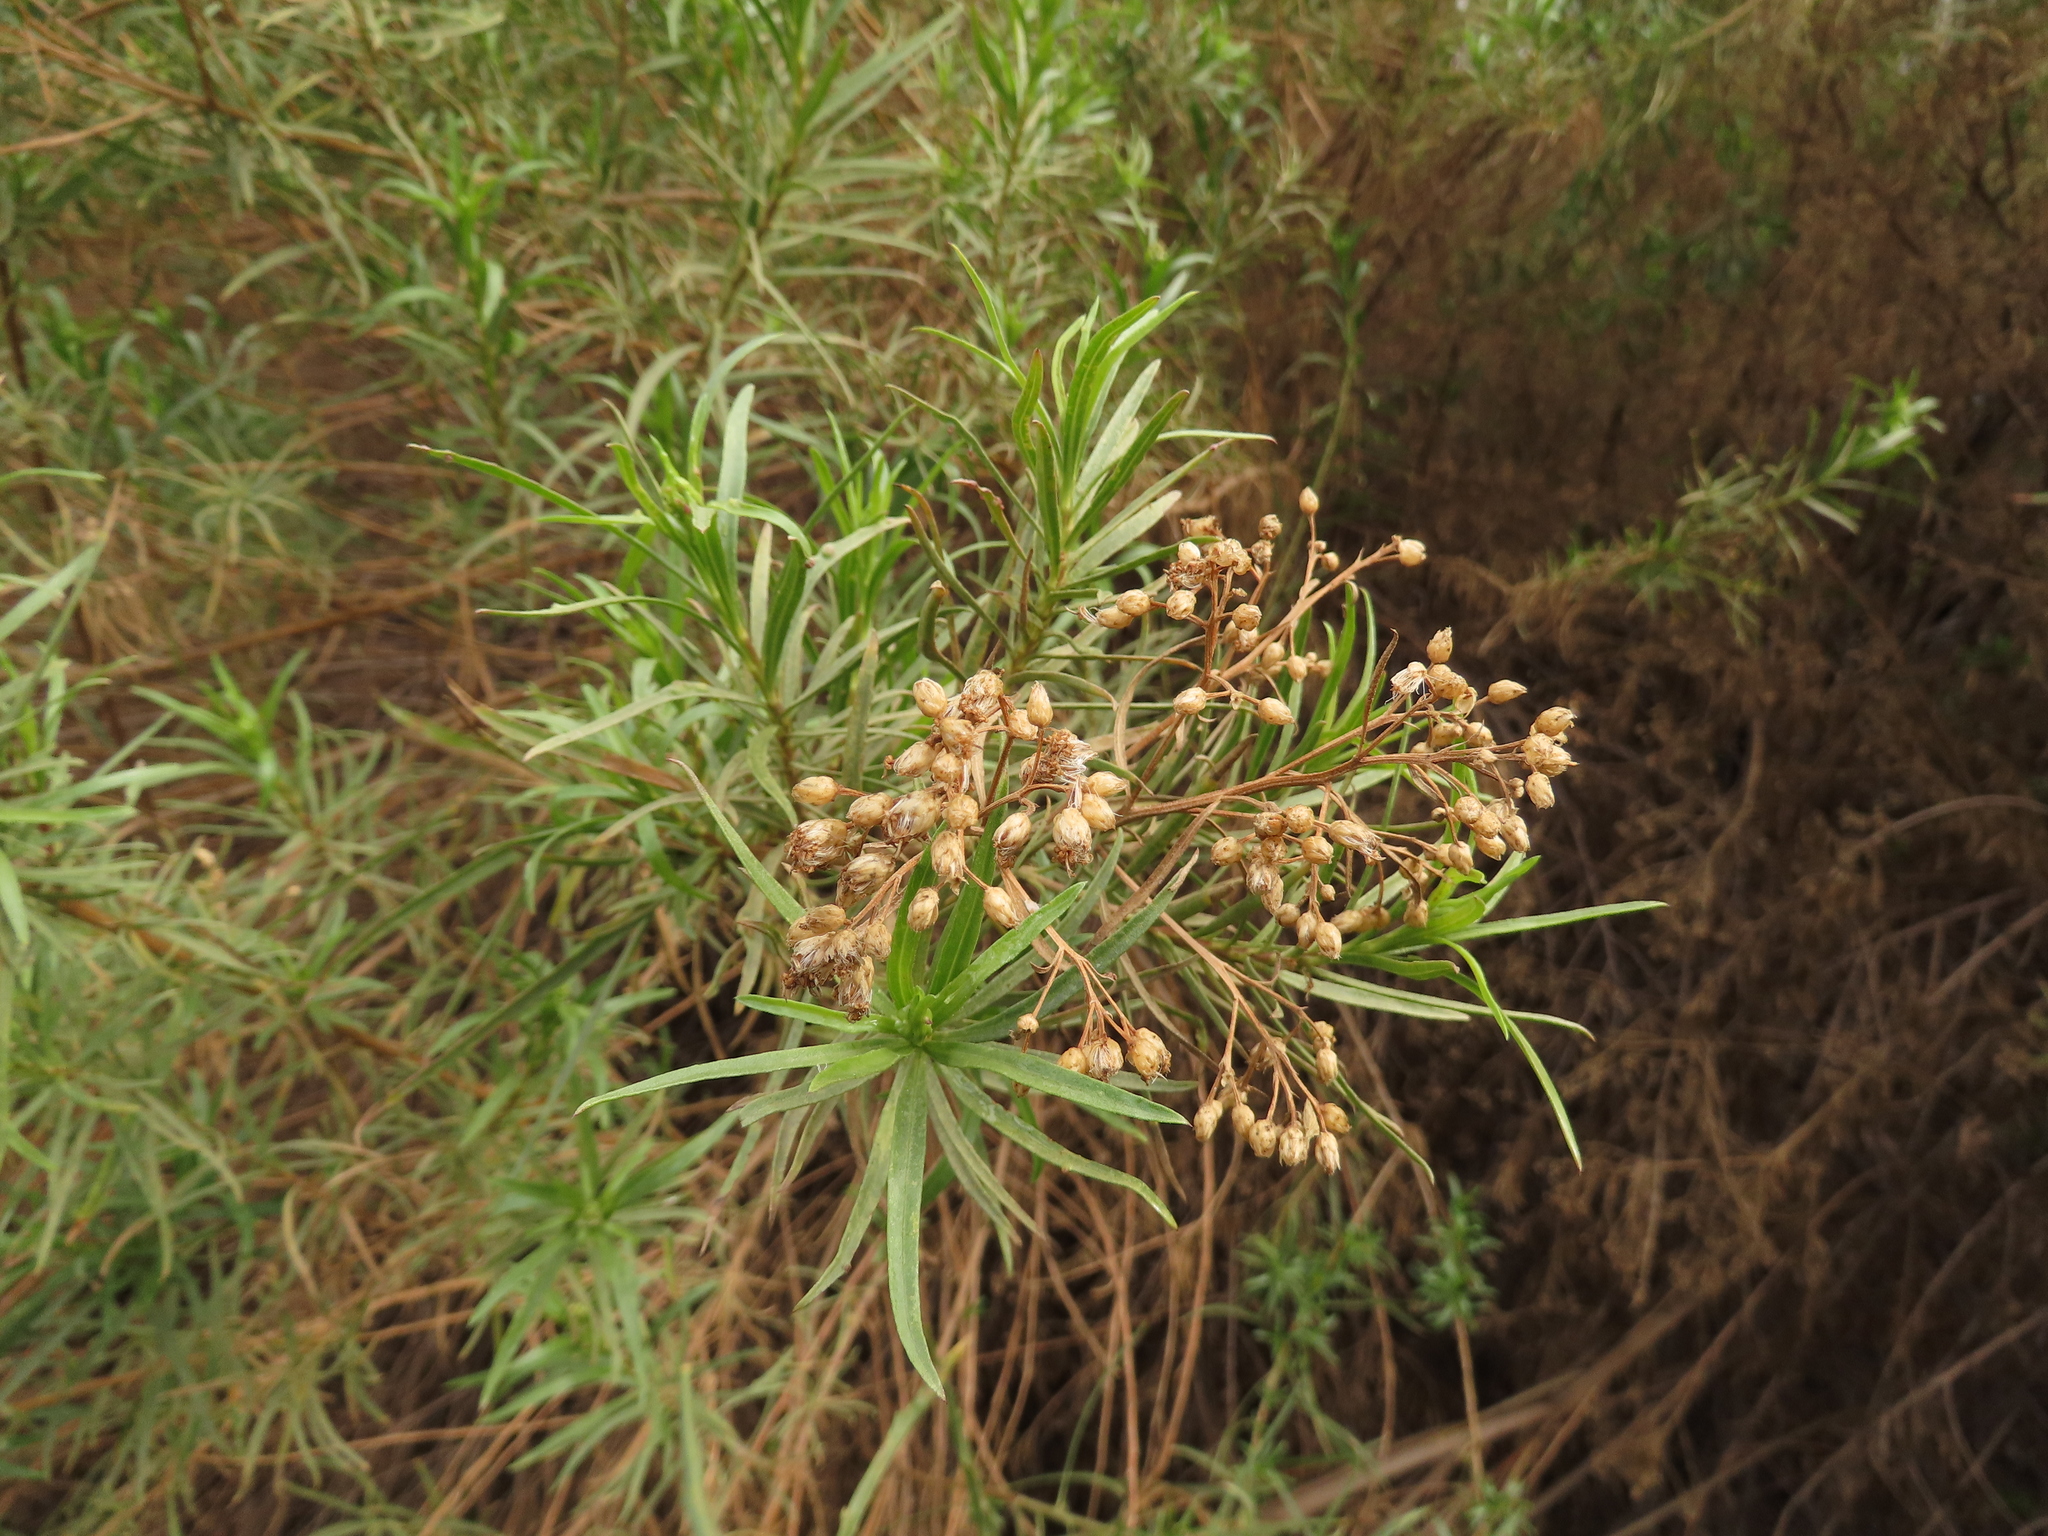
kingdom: Plantae
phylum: Tracheophyta
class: Magnoliopsida
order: Asterales
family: Asteraceae
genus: Baccharis
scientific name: Baccharis salicifolia
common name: Sticky baccharis
